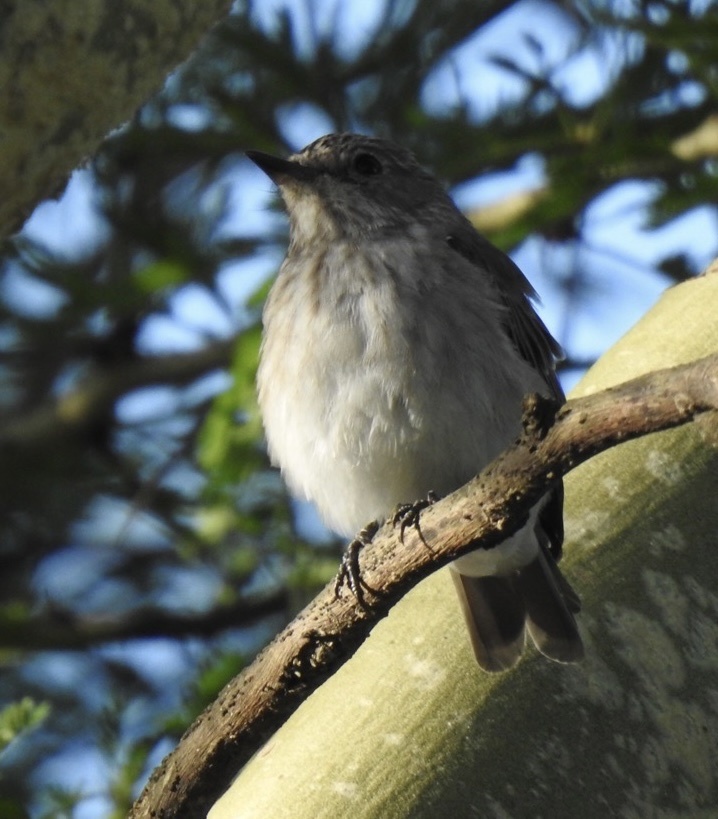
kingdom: Animalia
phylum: Chordata
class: Aves
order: Passeriformes
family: Muscicapidae
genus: Muscicapa
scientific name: Muscicapa striata
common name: Spotted flycatcher
